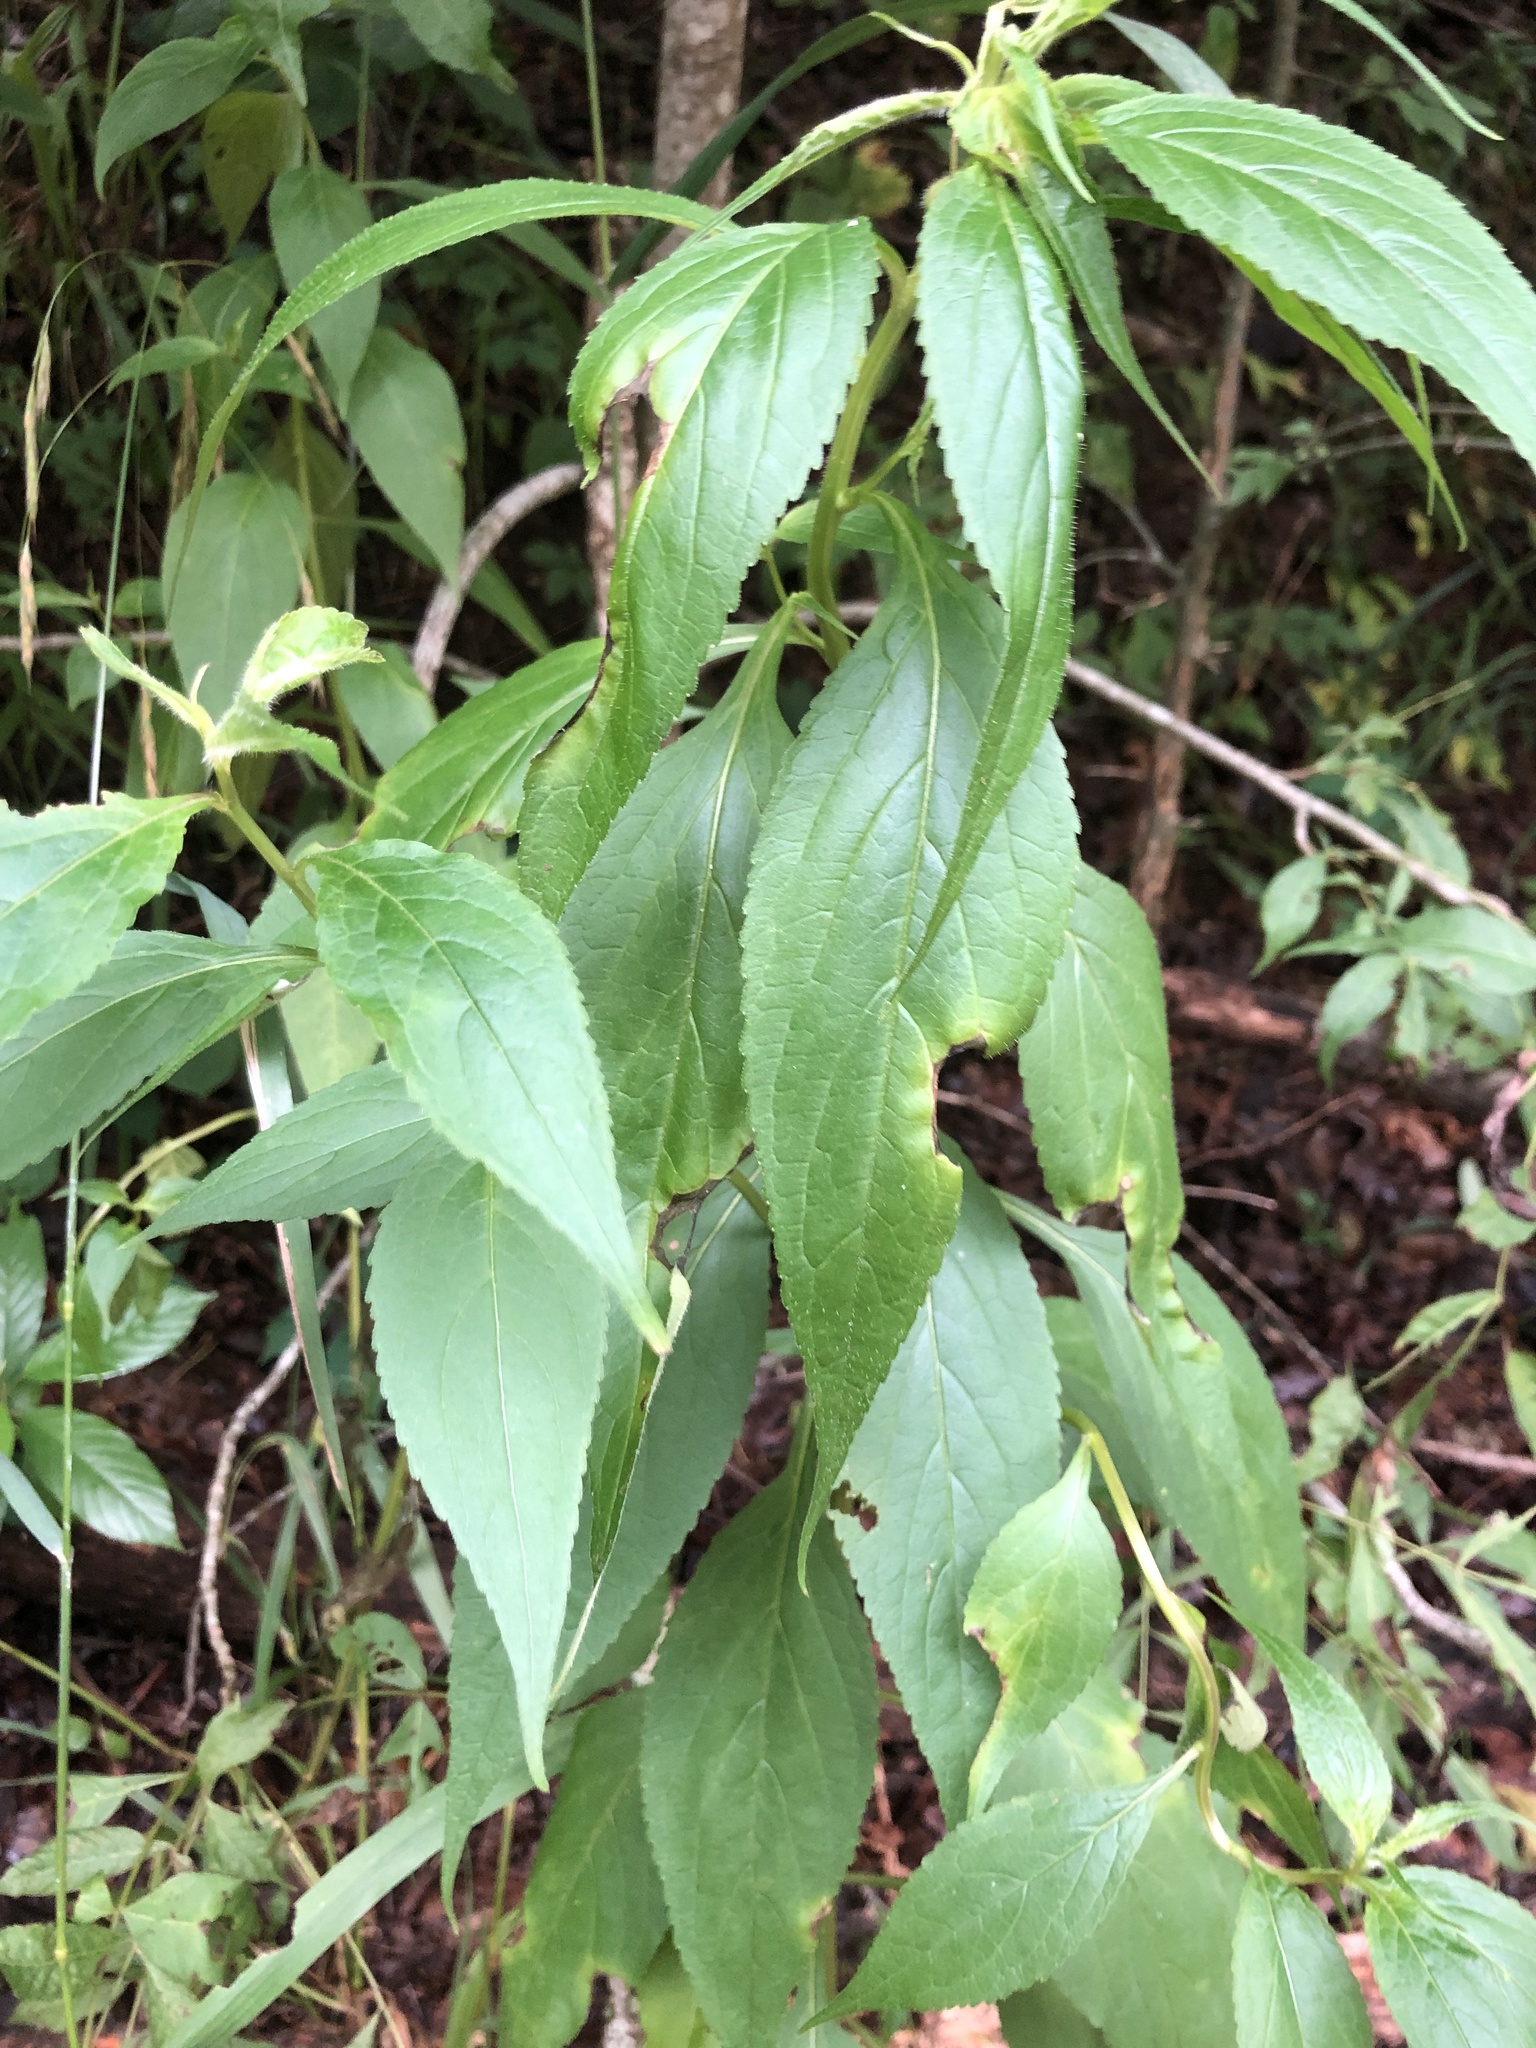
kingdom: Plantae
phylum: Tracheophyta
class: Magnoliopsida
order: Asterales
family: Campanulaceae
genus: Campanulastrum
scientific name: Campanulastrum americanum
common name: American bellflower
